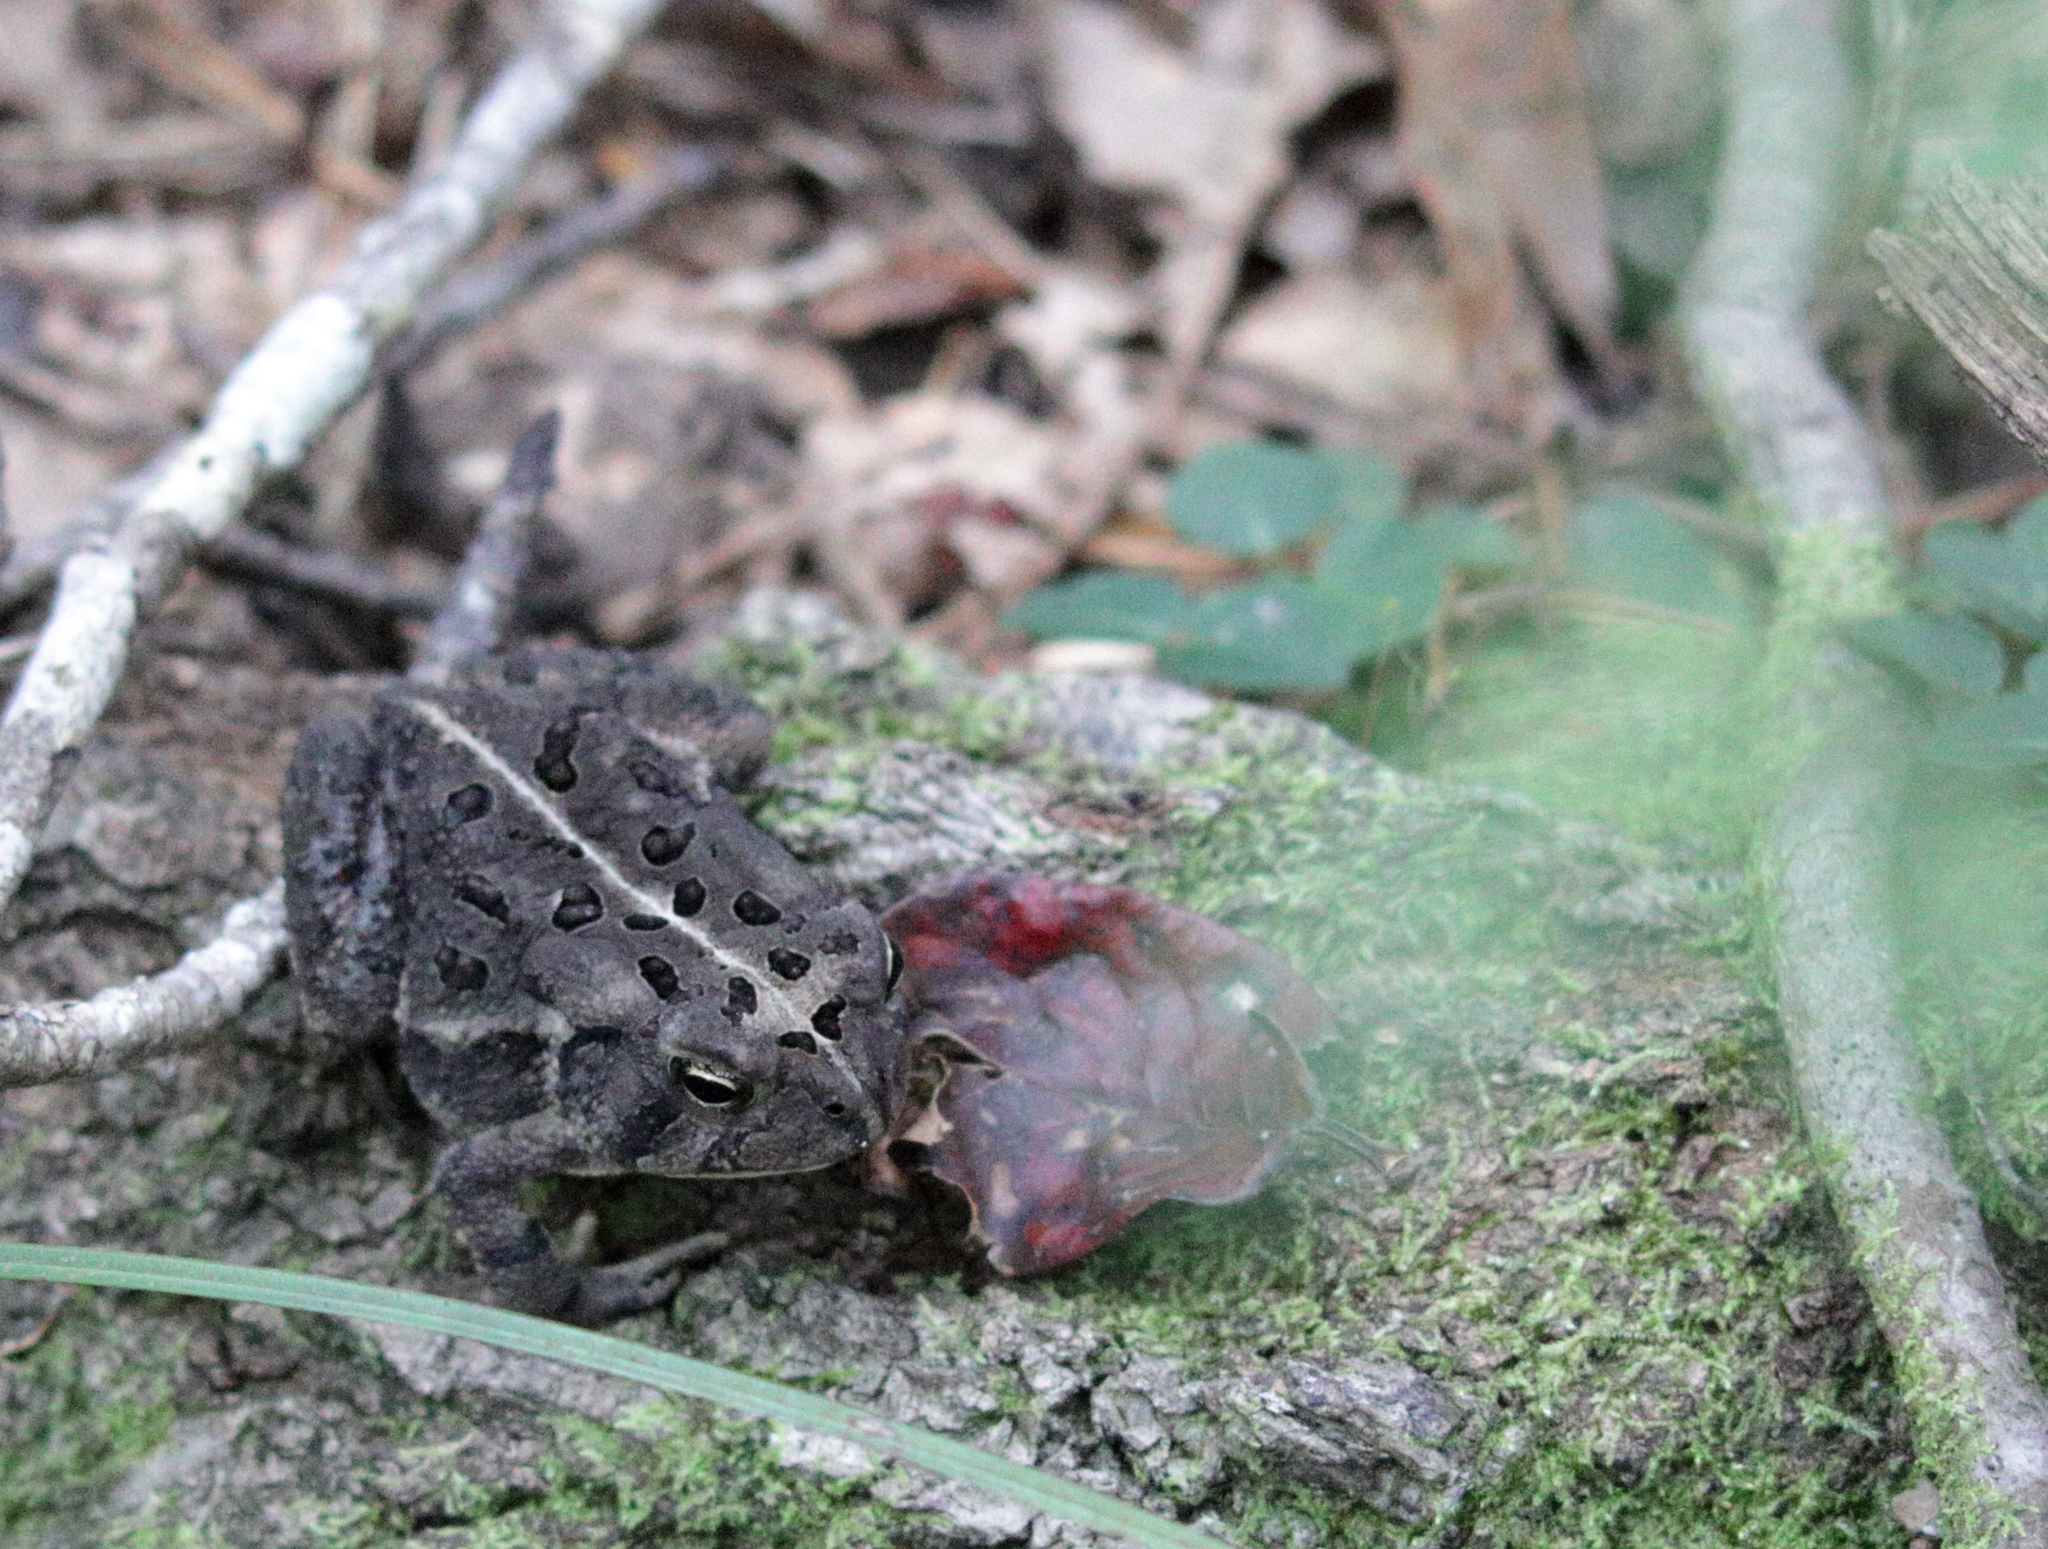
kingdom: Animalia
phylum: Chordata
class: Amphibia
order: Anura
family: Bufonidae
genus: Anaxyrus
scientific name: Anaxyrus fowleri
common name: Fowler's toad
